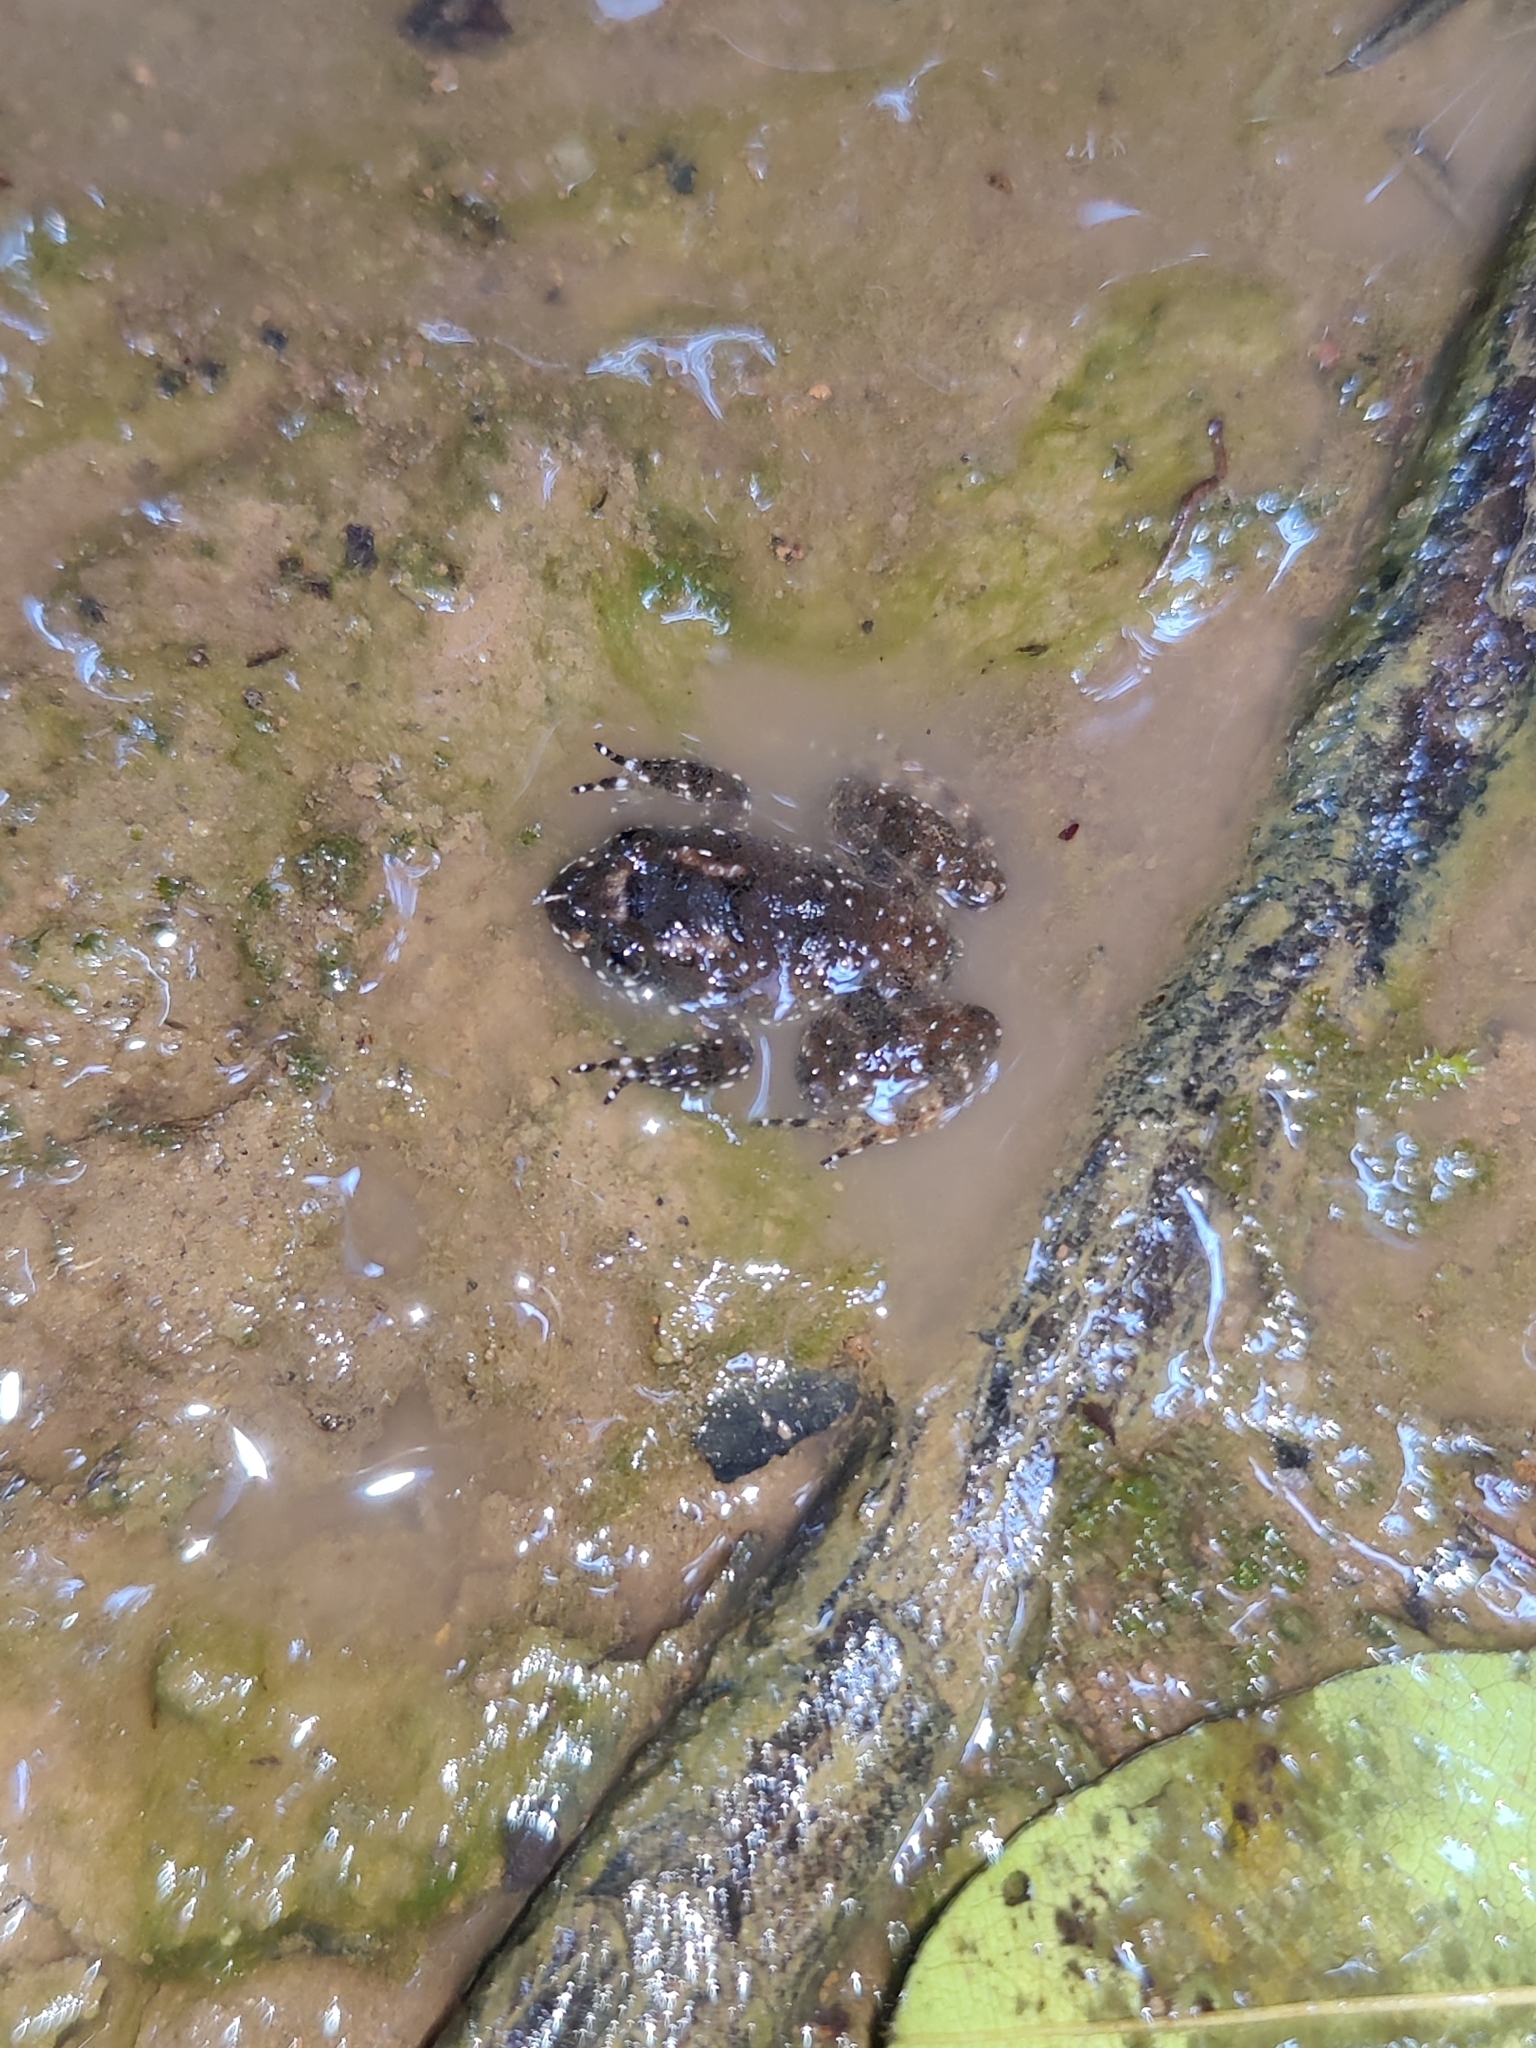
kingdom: Animalia
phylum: Chordata
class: Amphibia
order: Anura
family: Nyctibatrachidae
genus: Nyctibatrachus
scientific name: Nyctibatrachus kempholeyensis
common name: Kempholey night frog
